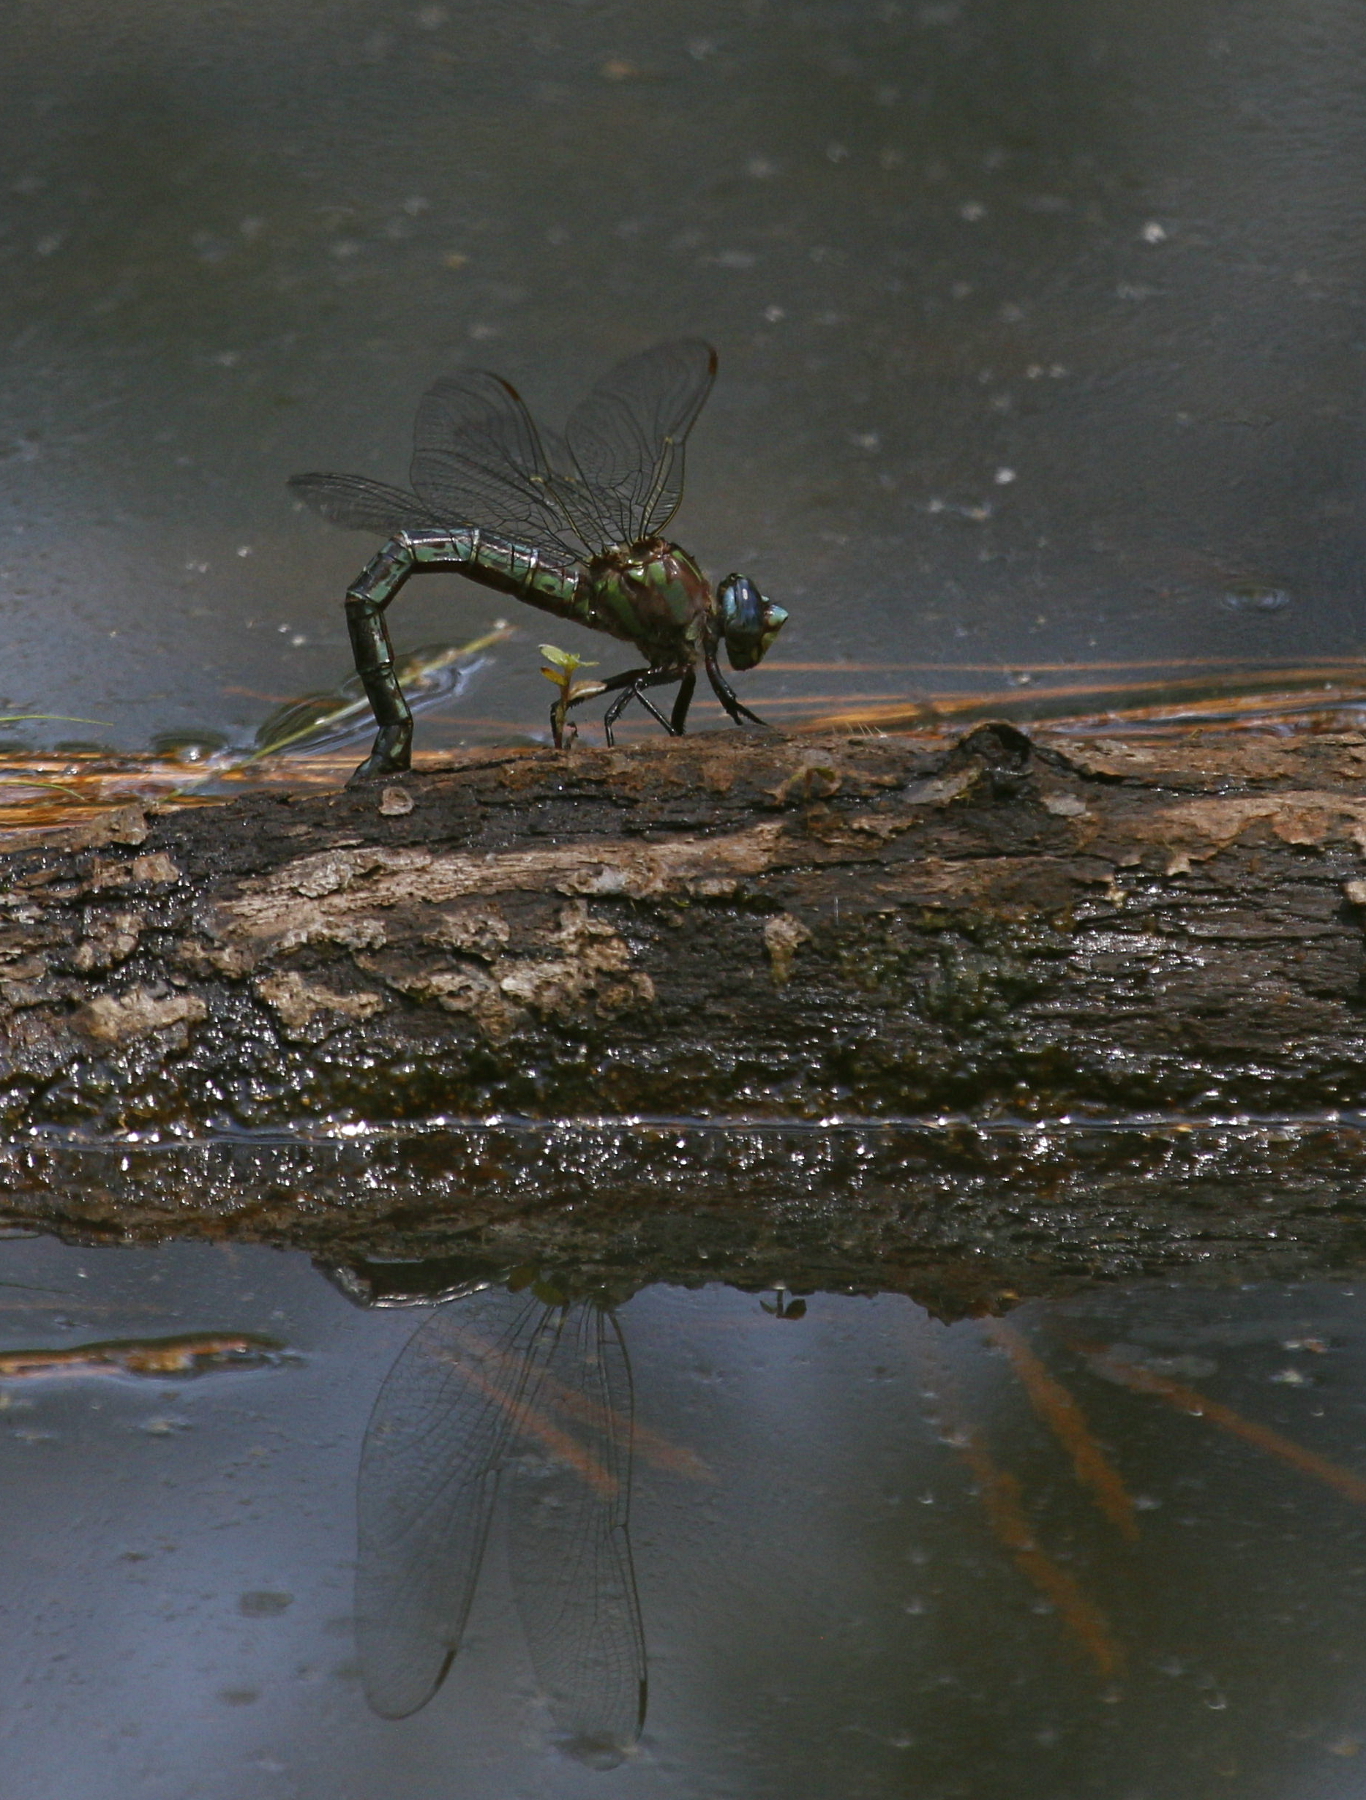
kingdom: Animalia
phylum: Arthropoda
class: Insecta
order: Odonata
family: Aeshnidae
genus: Nasiaeschna
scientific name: Nasiaeschna pentacantha
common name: Cyrano darner
